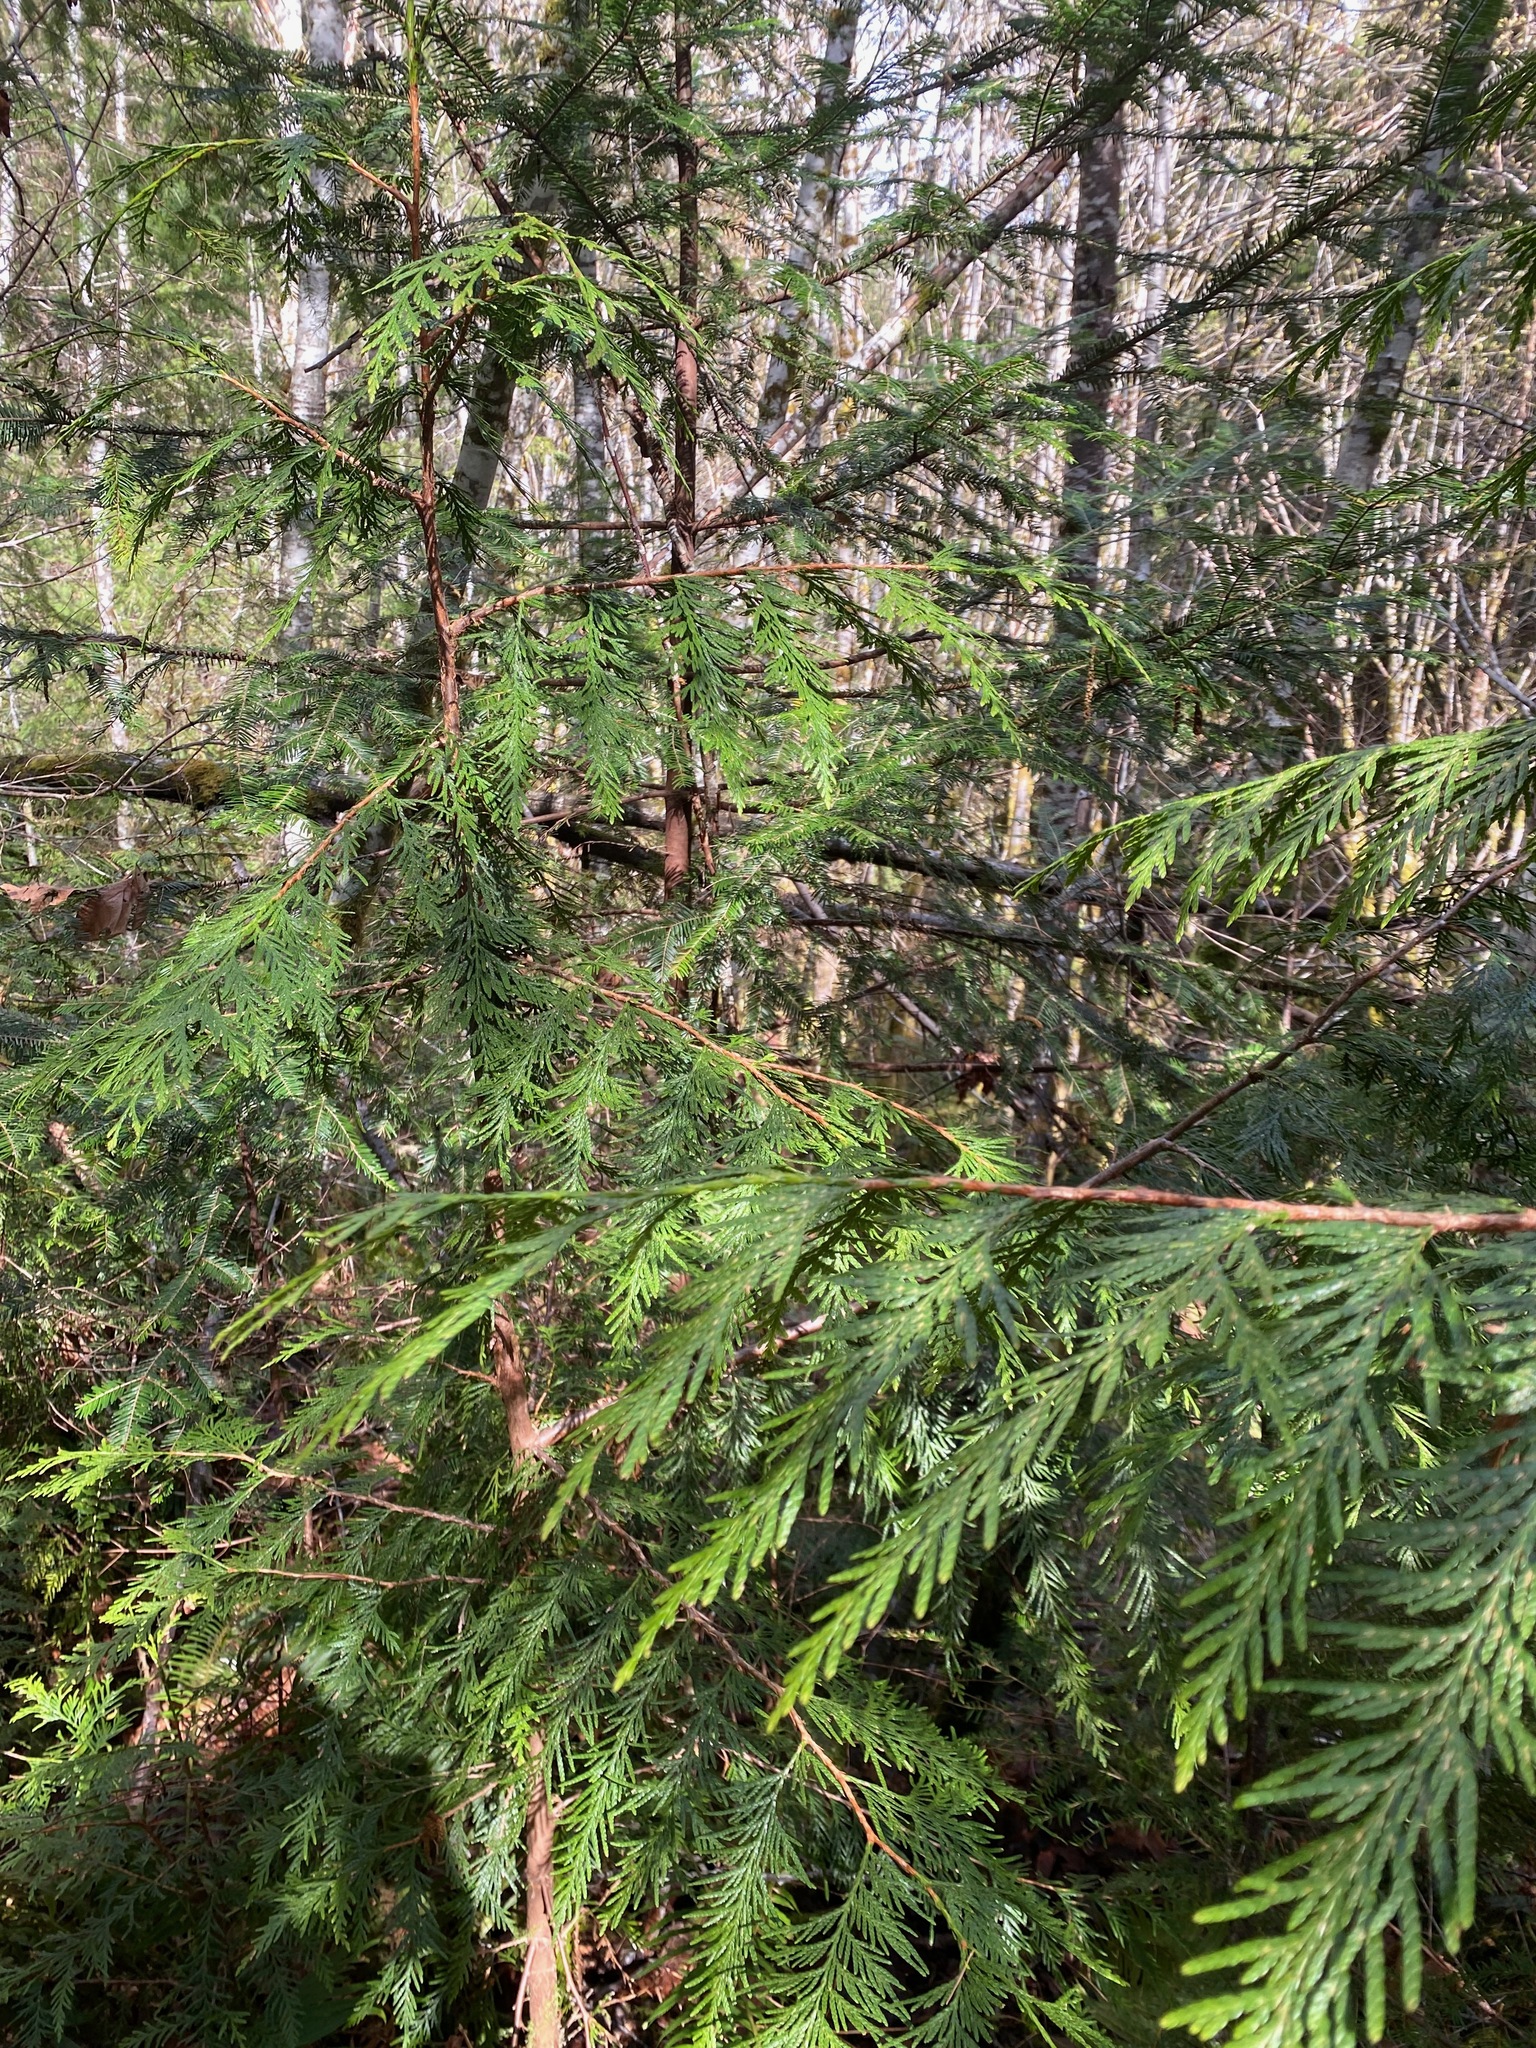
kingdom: Plantae
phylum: Tracheophyta
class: Pinopsida
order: Pinales
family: Cupressaceae
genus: Thuja
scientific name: Thuja plicata
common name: Western red-cedar
